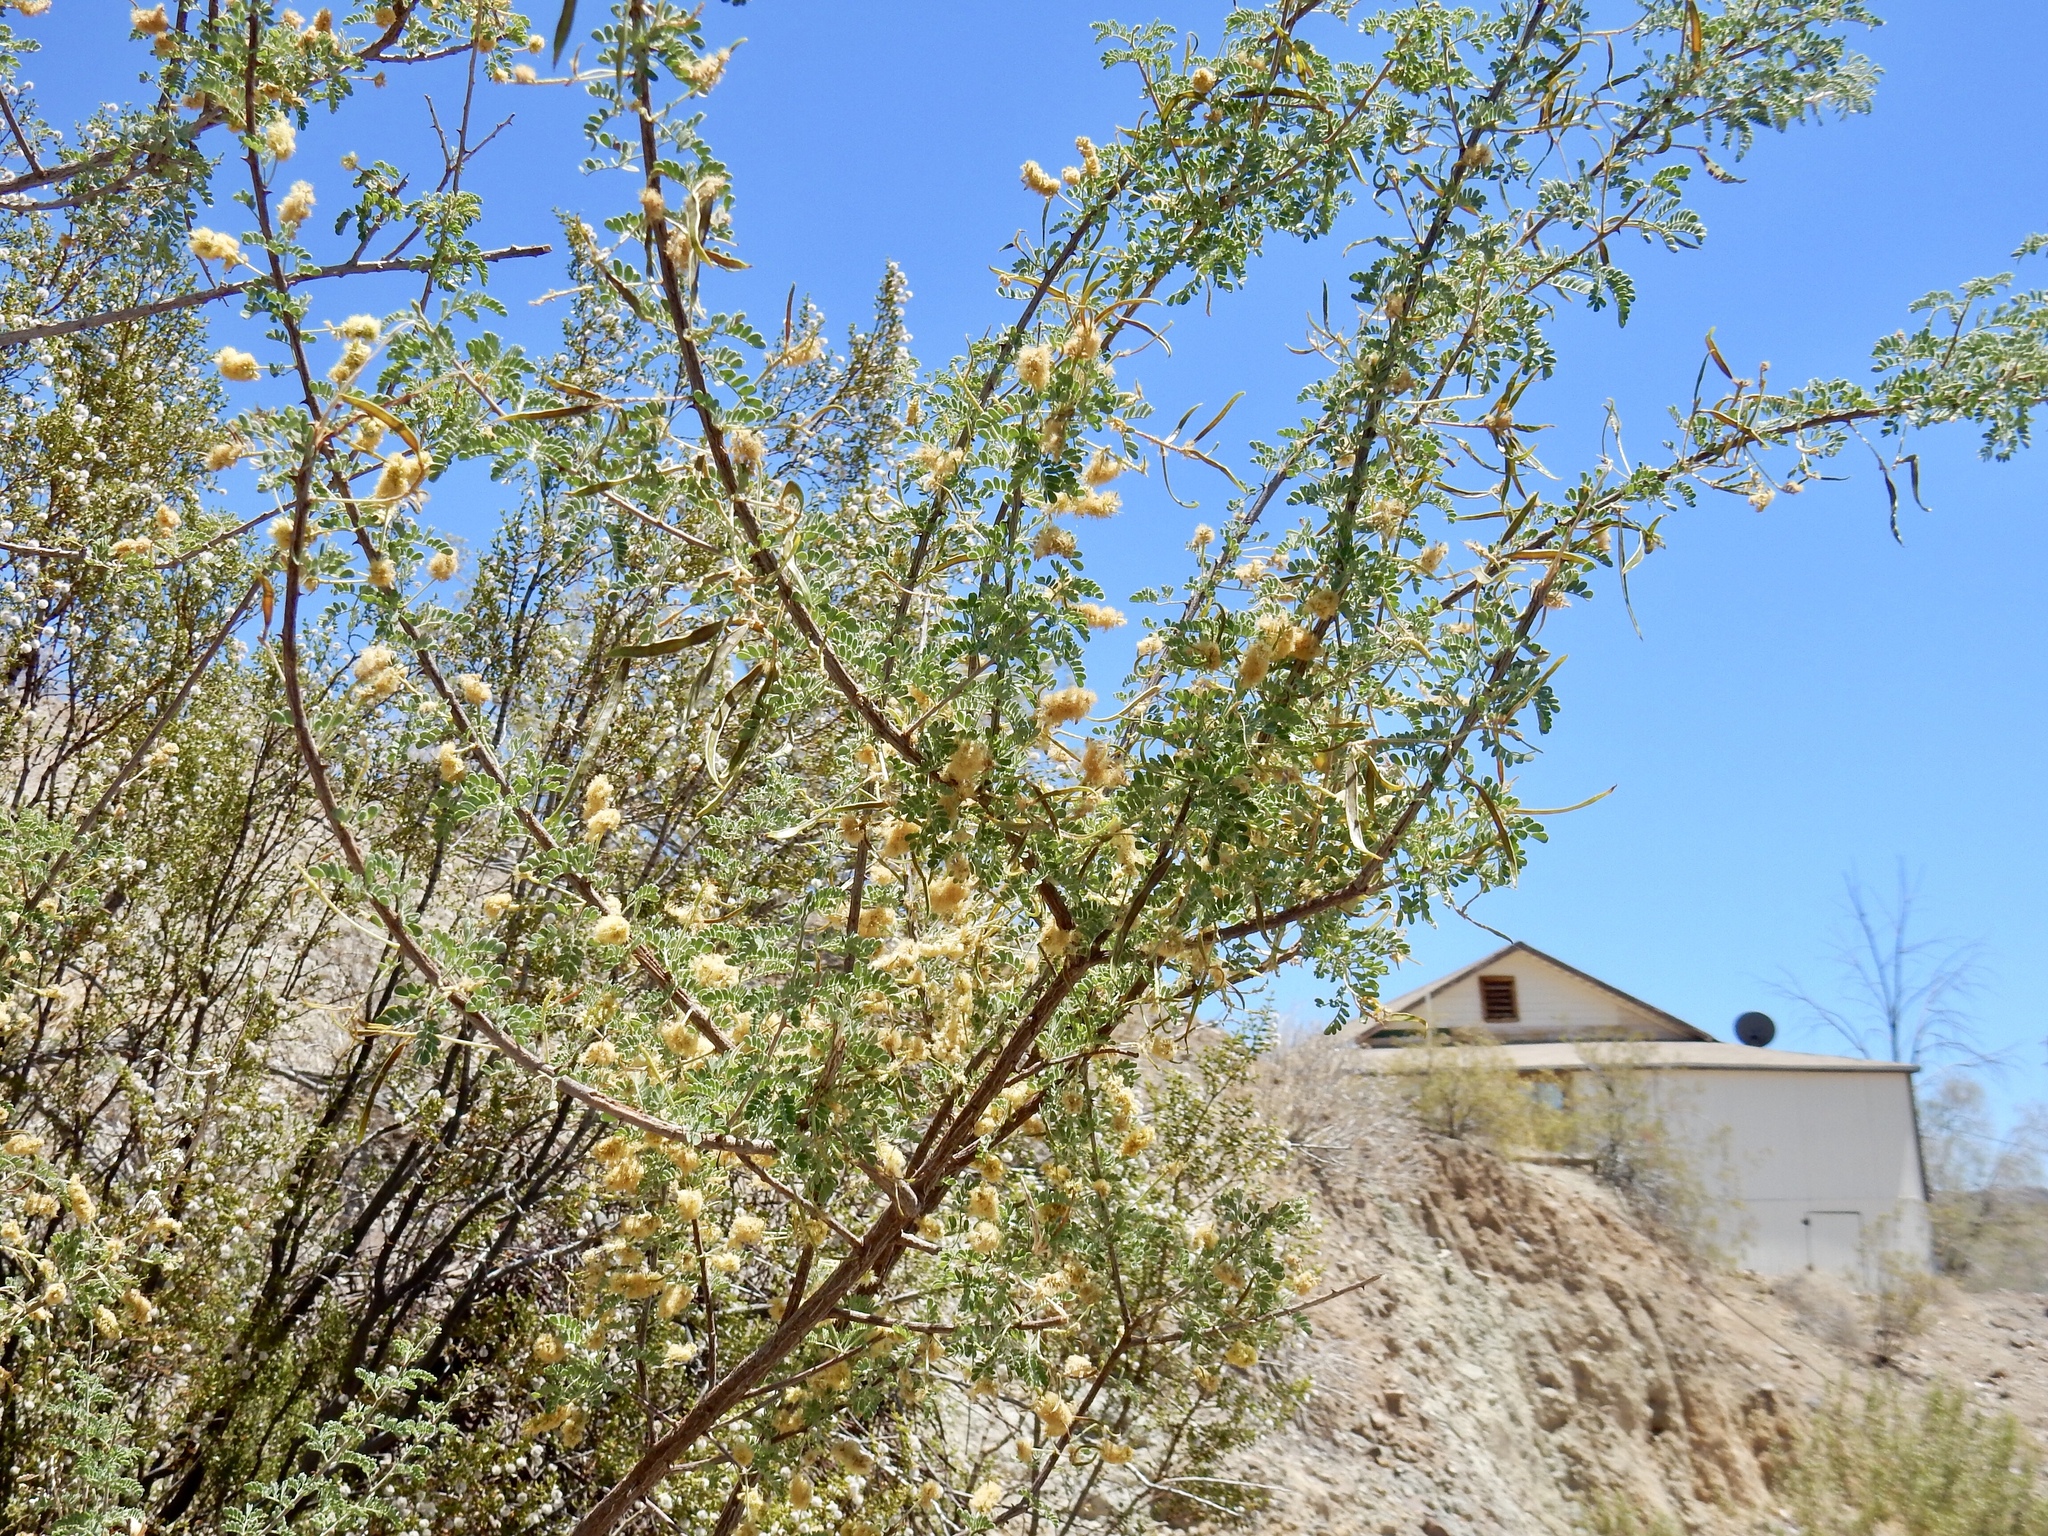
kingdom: Plantae
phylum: Tracheophyta
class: Magnoliopsida
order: Fabales
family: Fabaceae
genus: Senegalia
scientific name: Senegalia greggii
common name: Texas-mimosa
